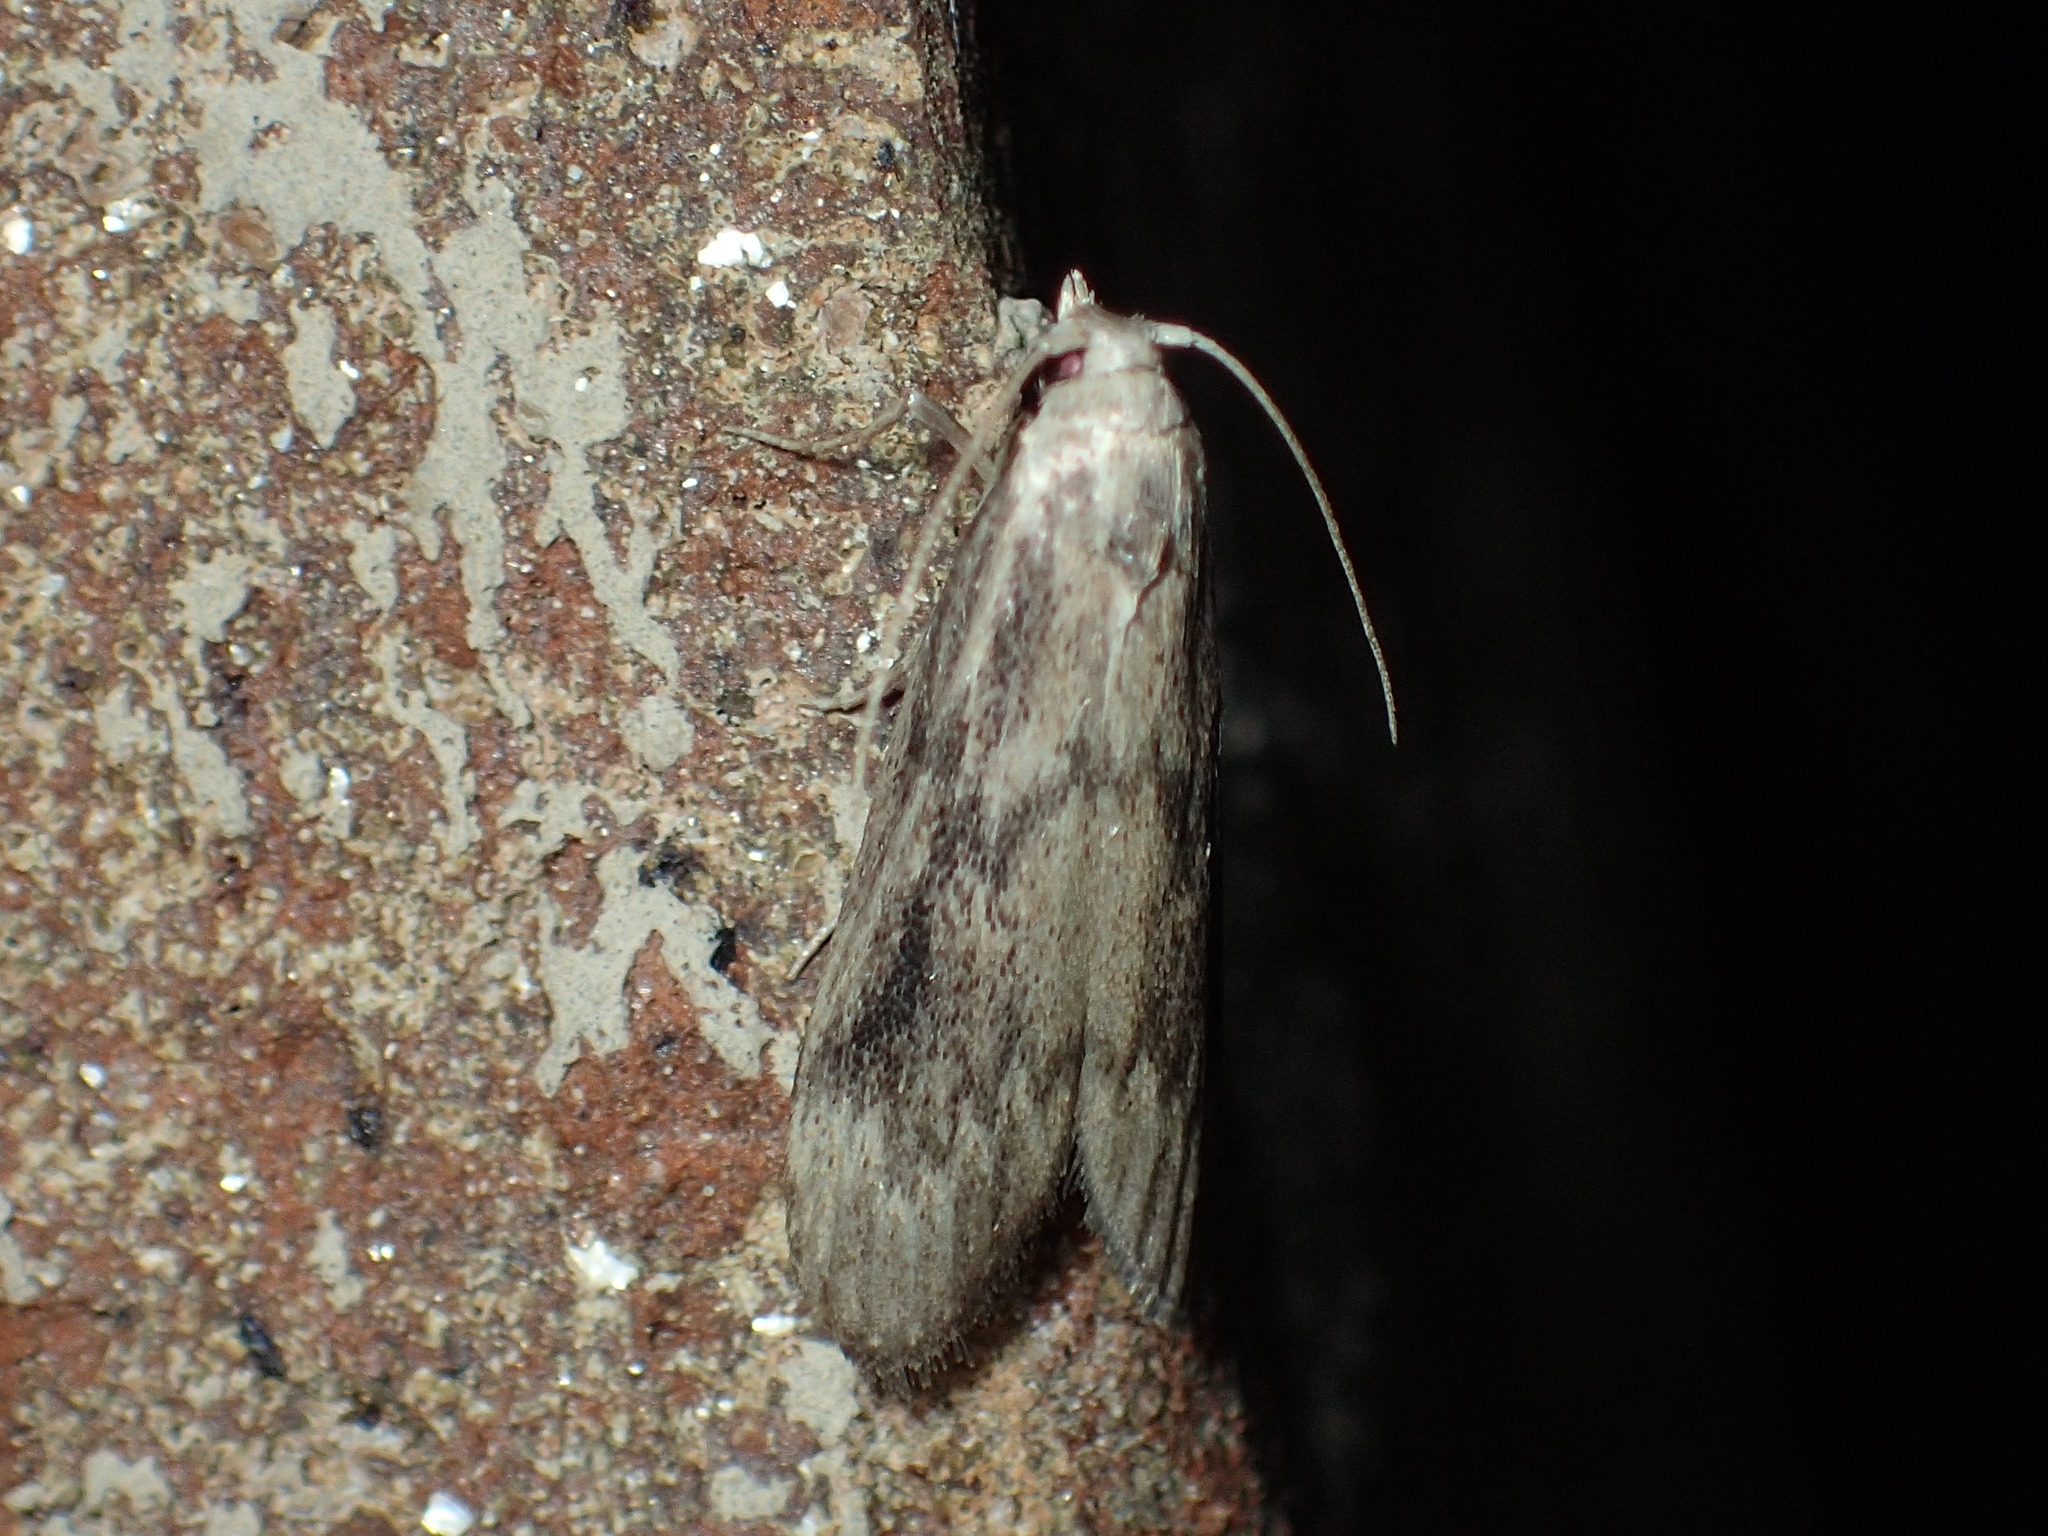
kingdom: Animalia
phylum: Arthropoda
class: Insecta
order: Lepidoptera
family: Pyralidae
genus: Aphomia
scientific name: Aphomia sociella
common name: Bee moth
